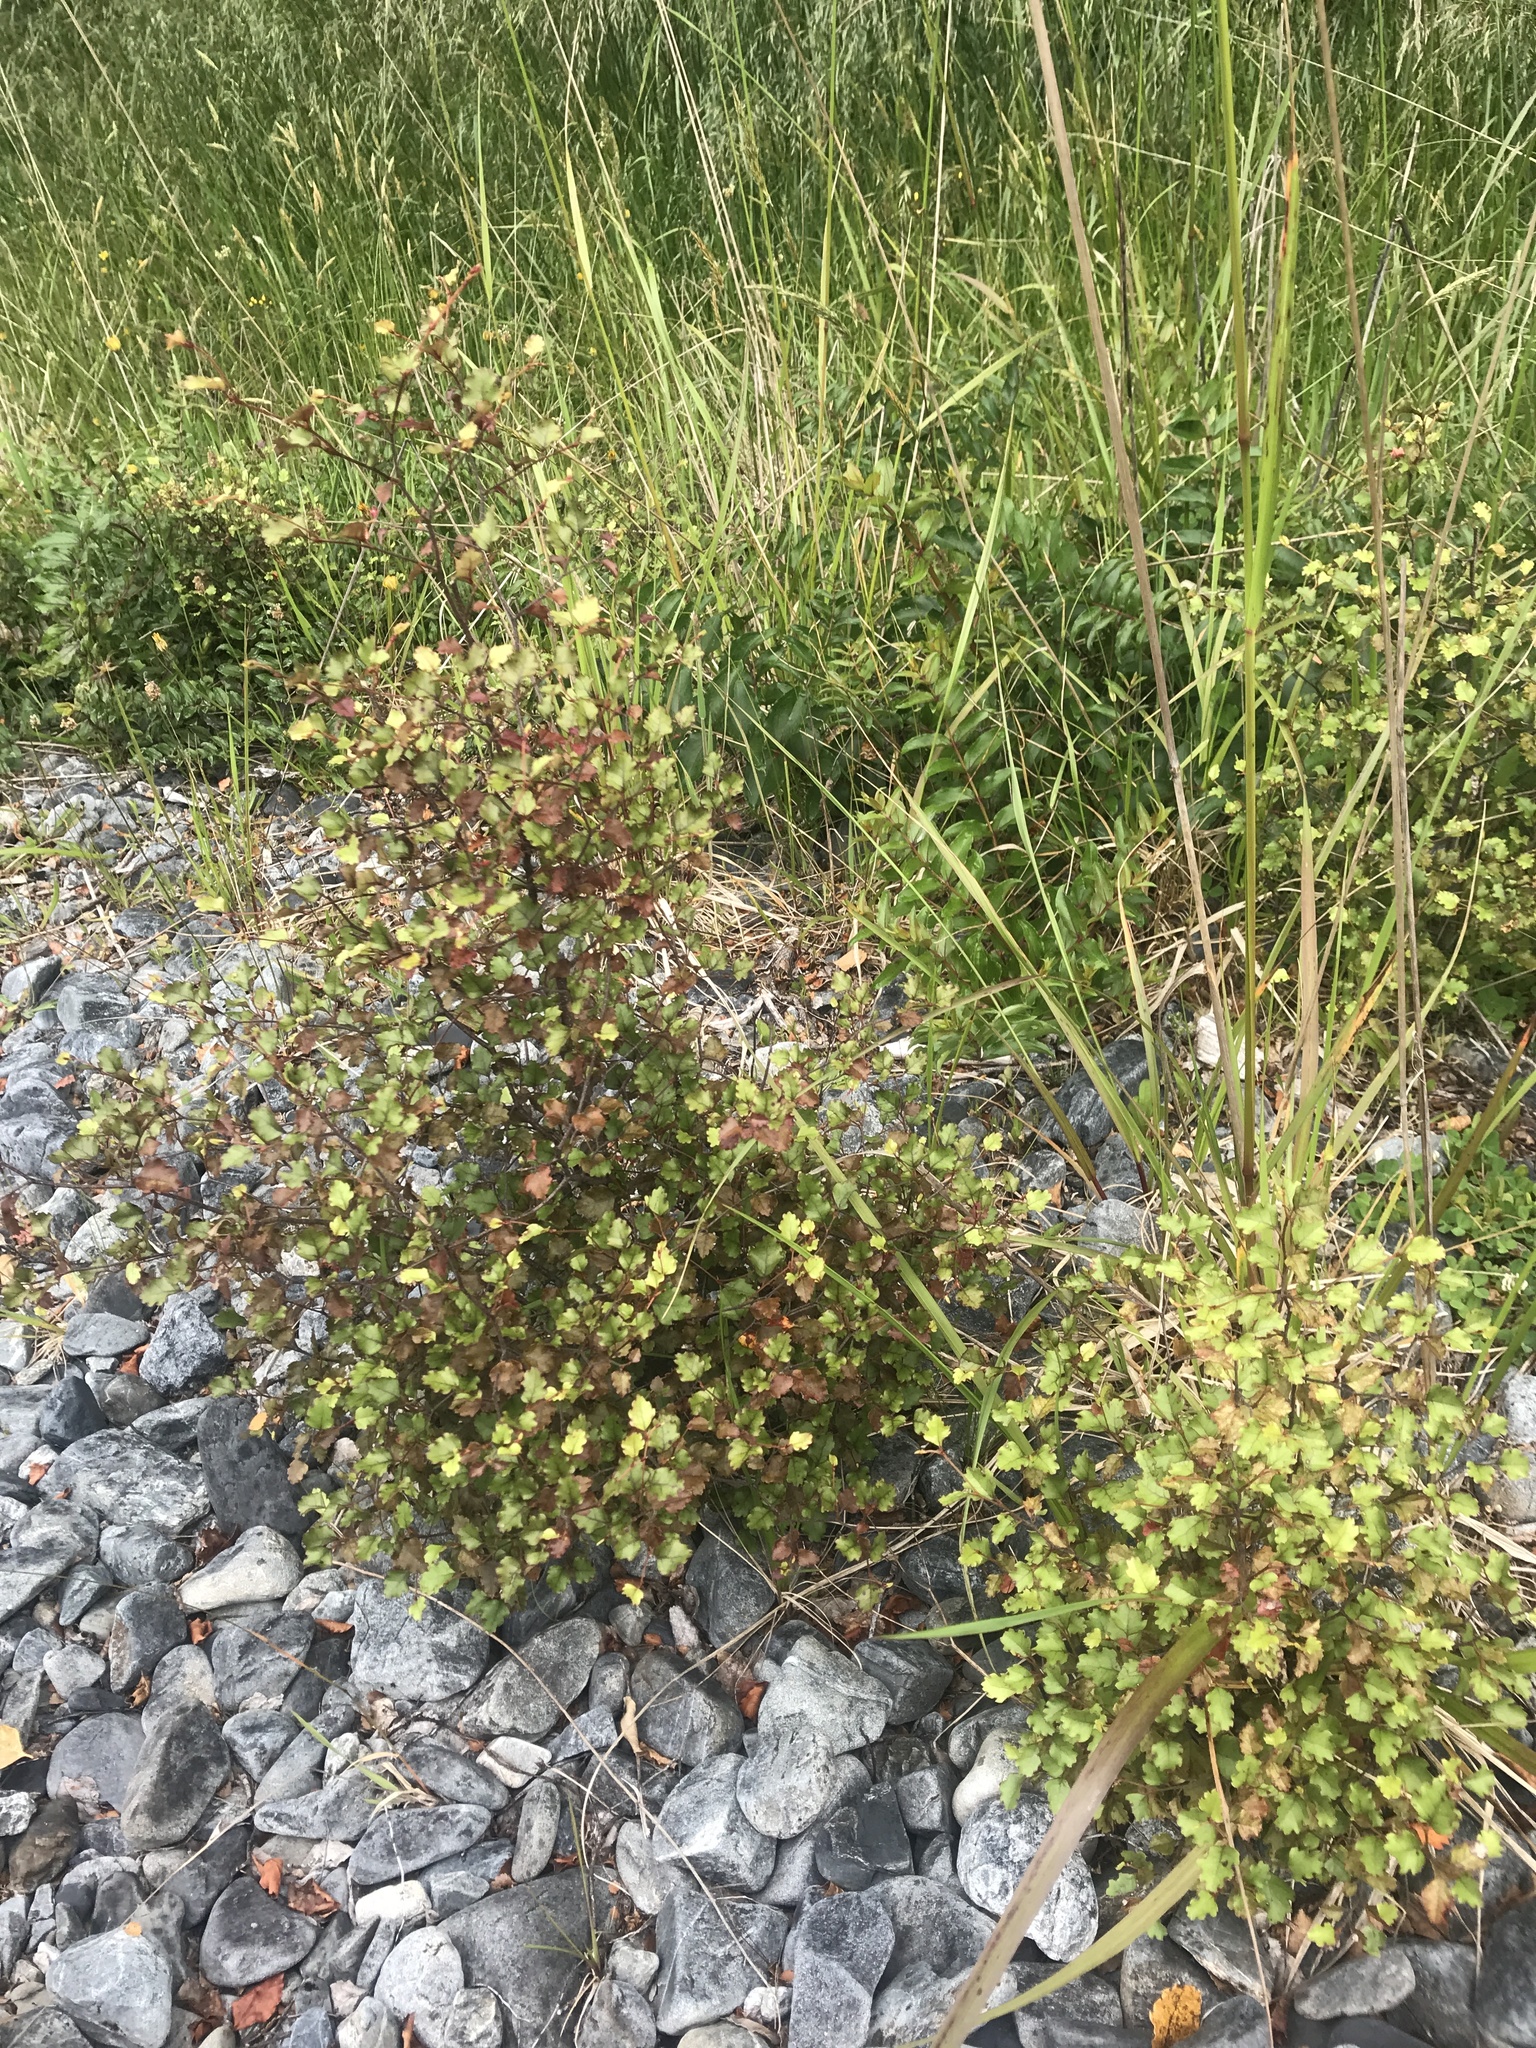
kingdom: Plantae
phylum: Tracheophyta
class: Magnoliopsida
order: Fagales
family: Nothofagaceae
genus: Nothofagus
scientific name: Nothofagus fusca
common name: Red beech
